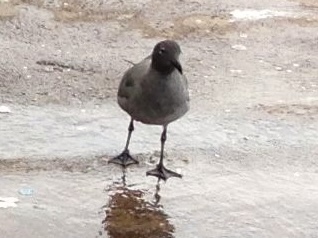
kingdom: Animalia
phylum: Chordata
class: Aves
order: Charadriiformes
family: Laridae
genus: Leucophaeus
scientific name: Leucophaeus fuliginosus
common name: Lava gull
